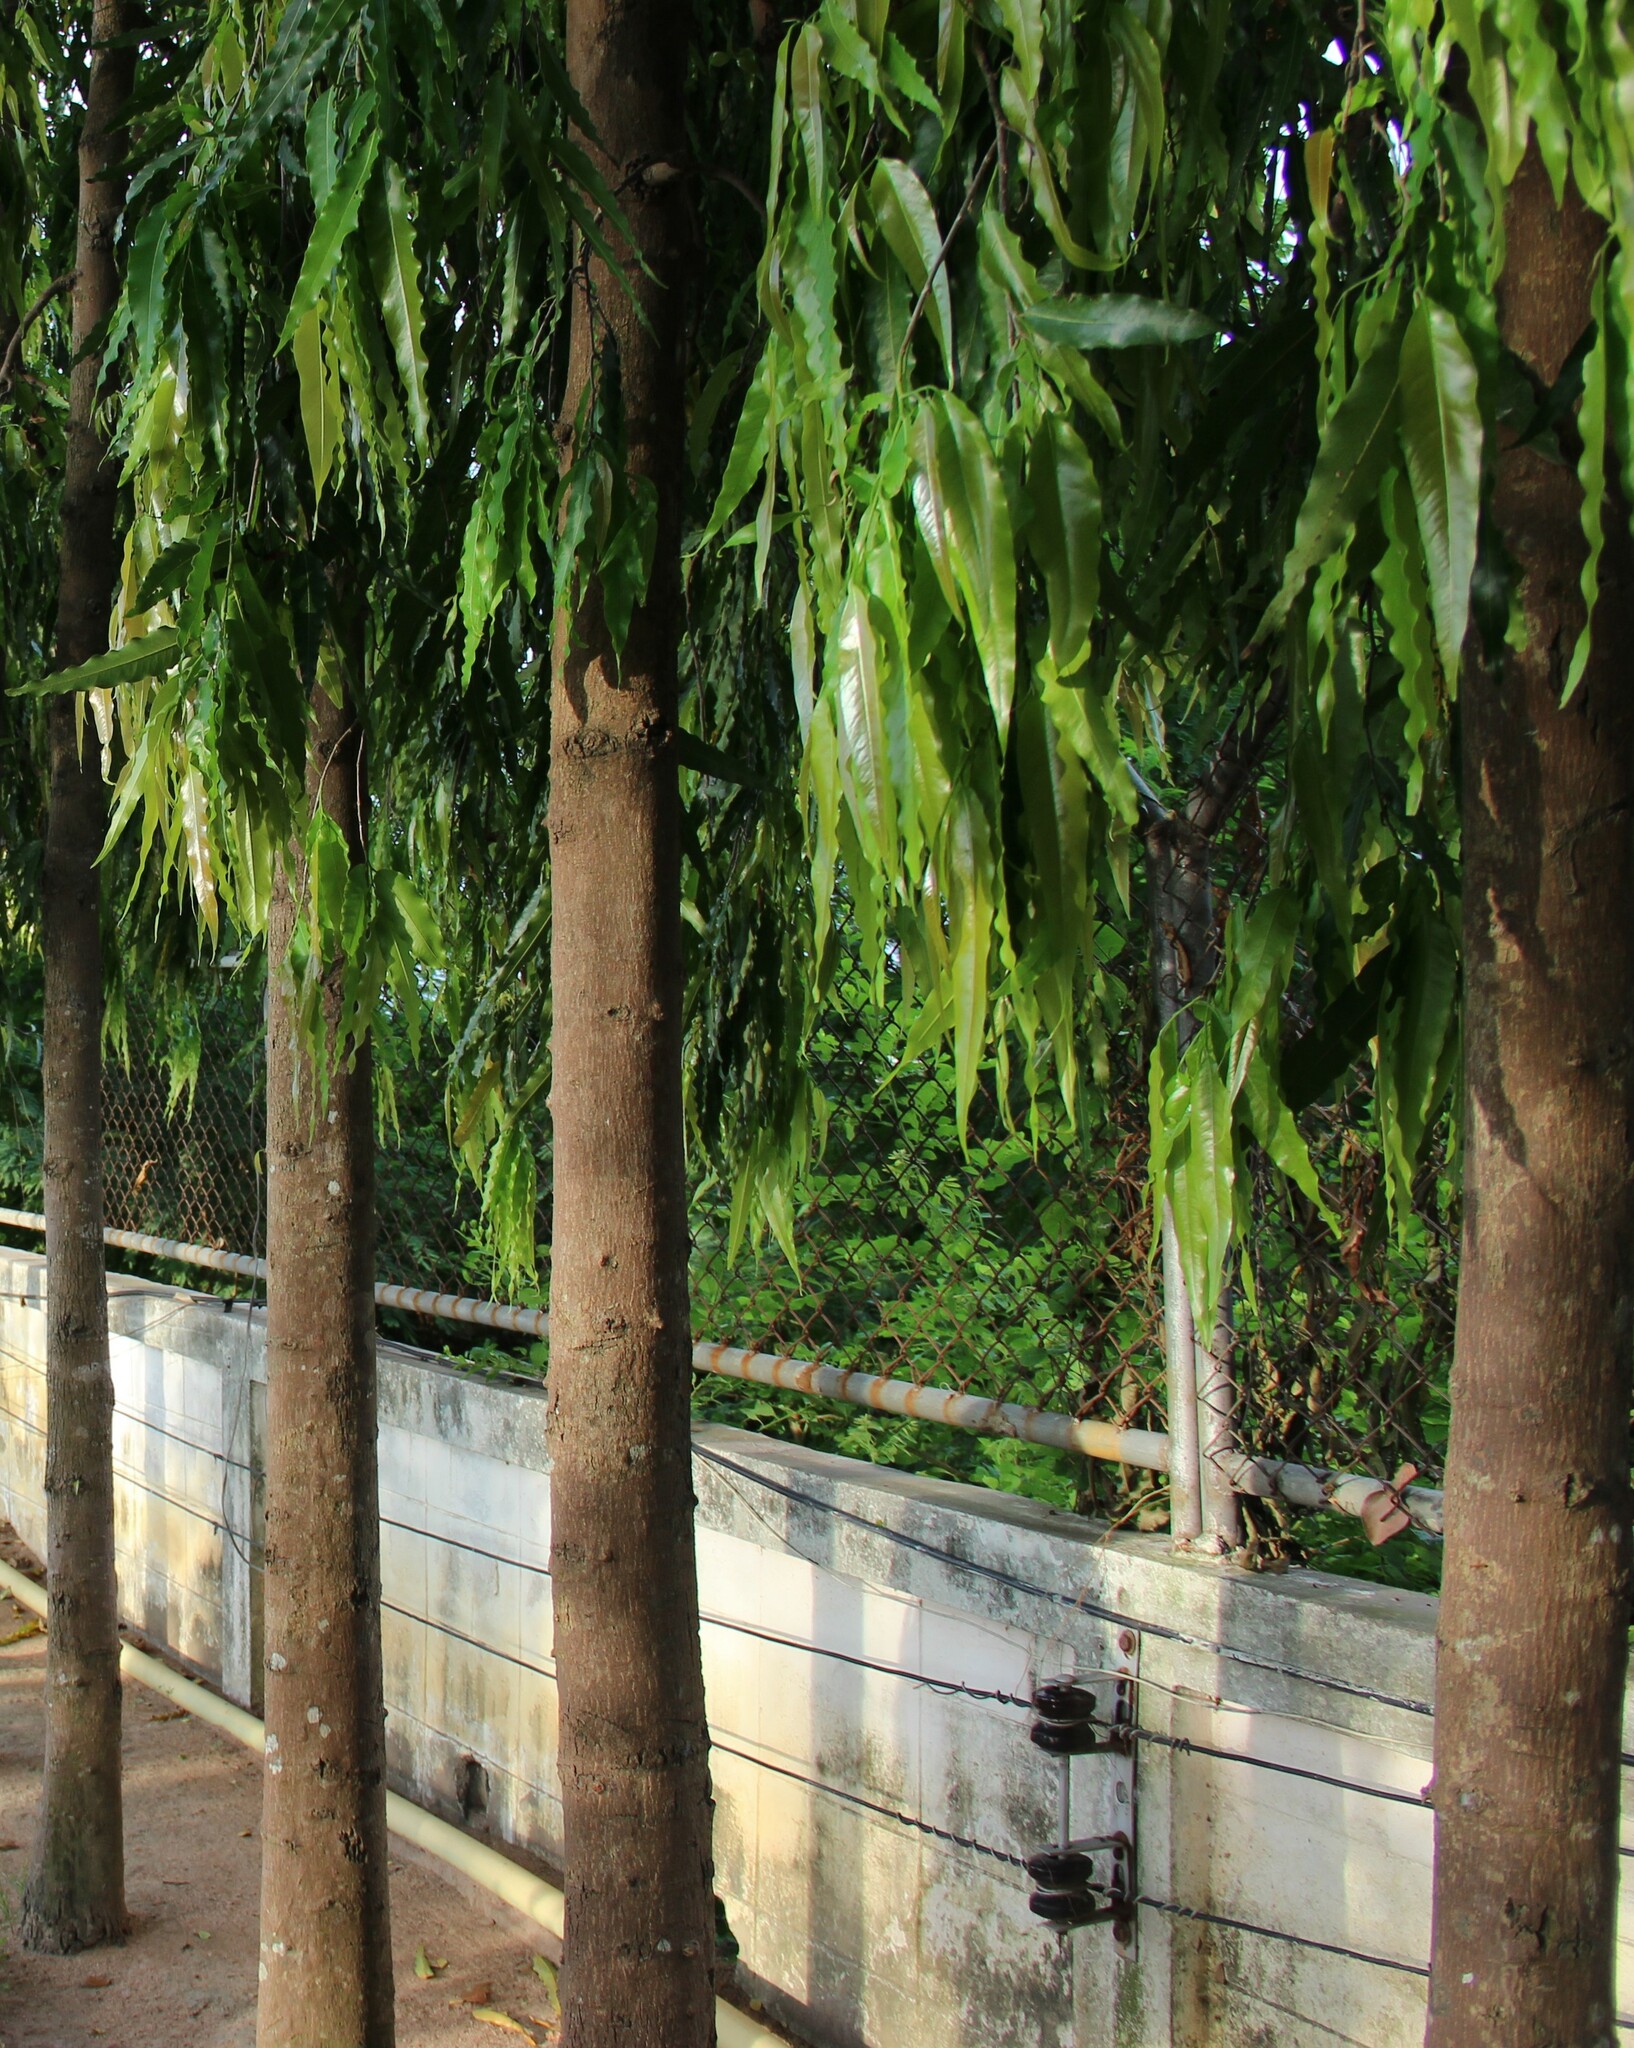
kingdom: Plantae
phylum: Tracheophyta
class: Magnoliopsida
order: Magnoliales
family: Annonaceae
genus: Polyalthia
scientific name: Polyalthia longifolia
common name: Cemetery-tree
